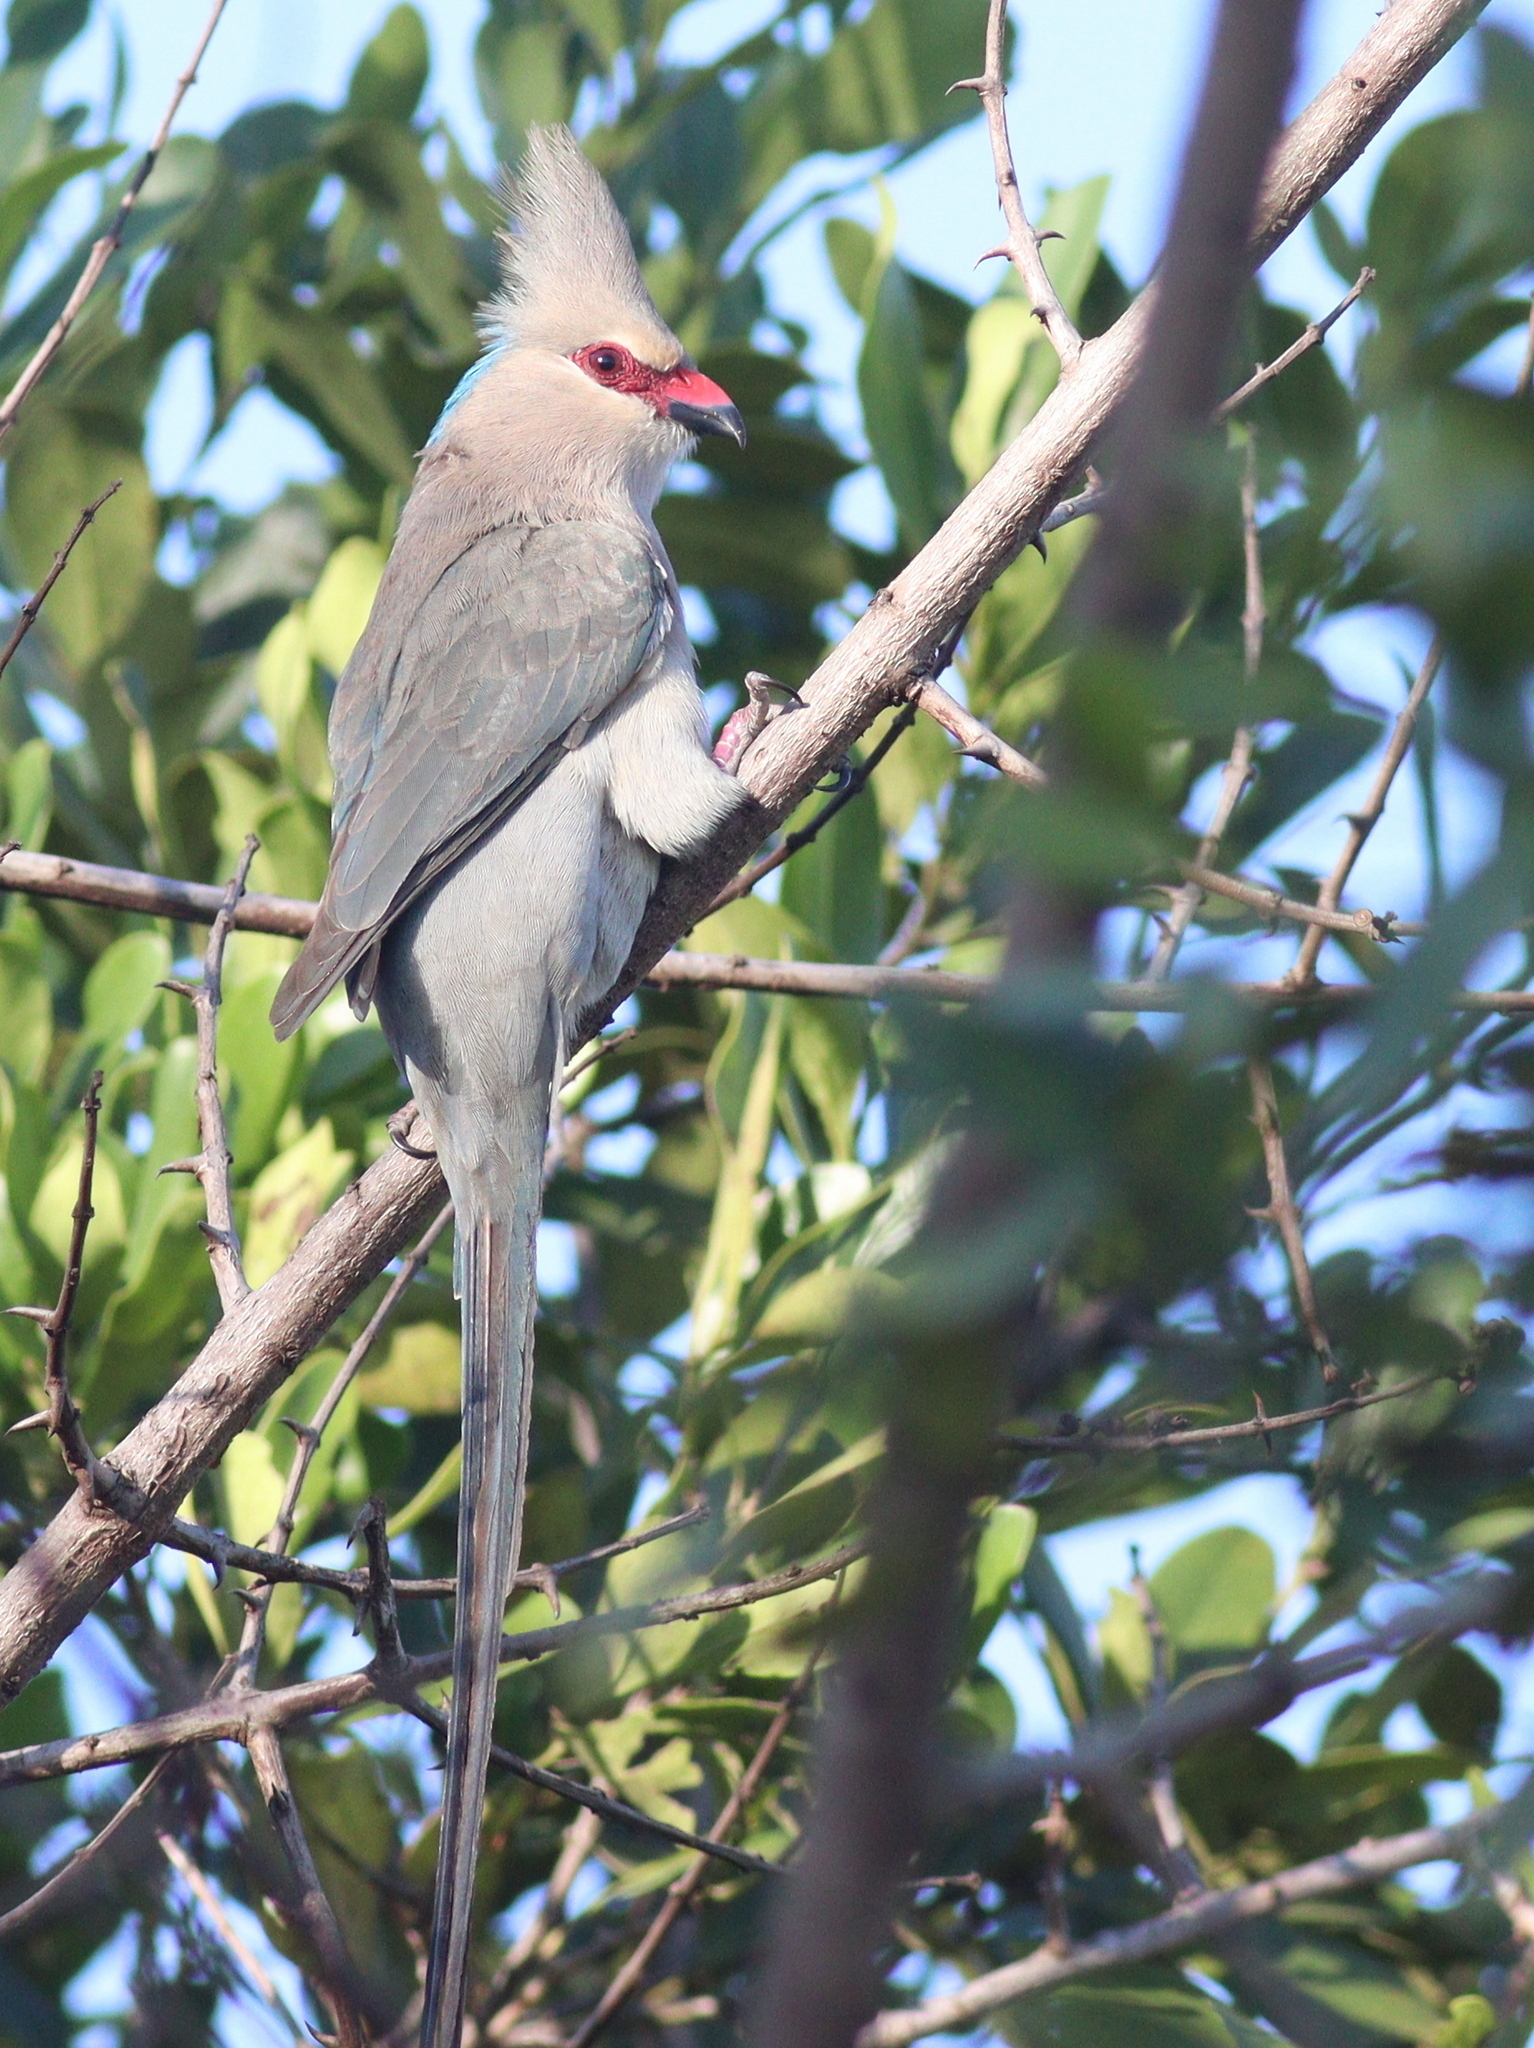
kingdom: Animalia
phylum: Chordata
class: Aves
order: Coliiformes
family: Coliidae
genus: Urocolius
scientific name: Urocolius macrourus
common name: Blue-naped mousebird
